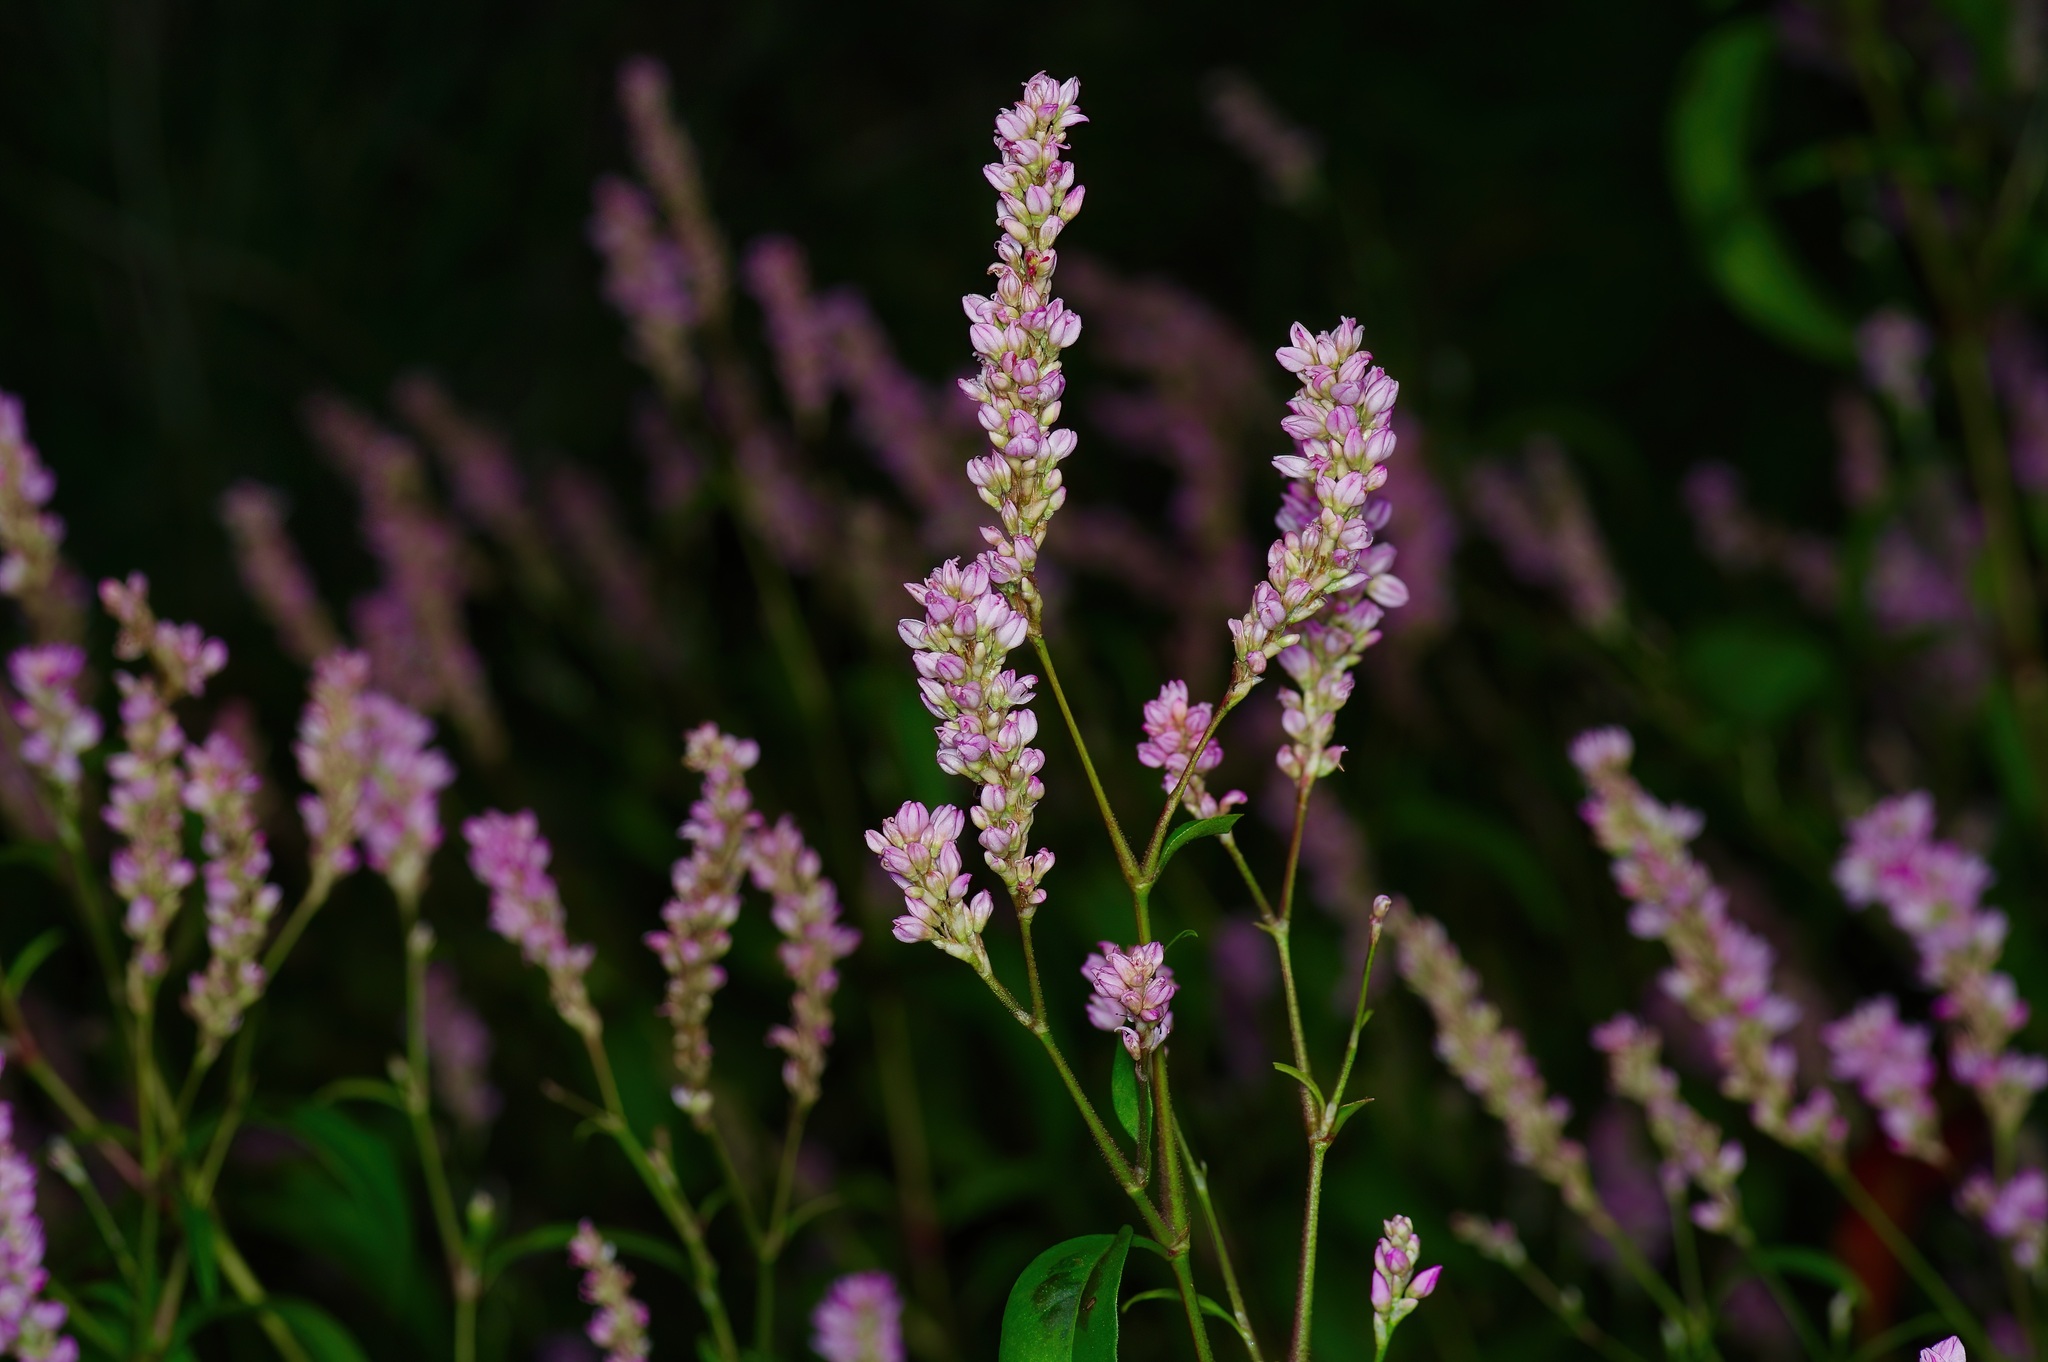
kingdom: Plantae
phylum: Tracheophyta
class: Magnoliopsida
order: Caryophyllales
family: Polygonaceae
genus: Persicaria
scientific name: Persicaria pensylvanica
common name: Pinkweed
